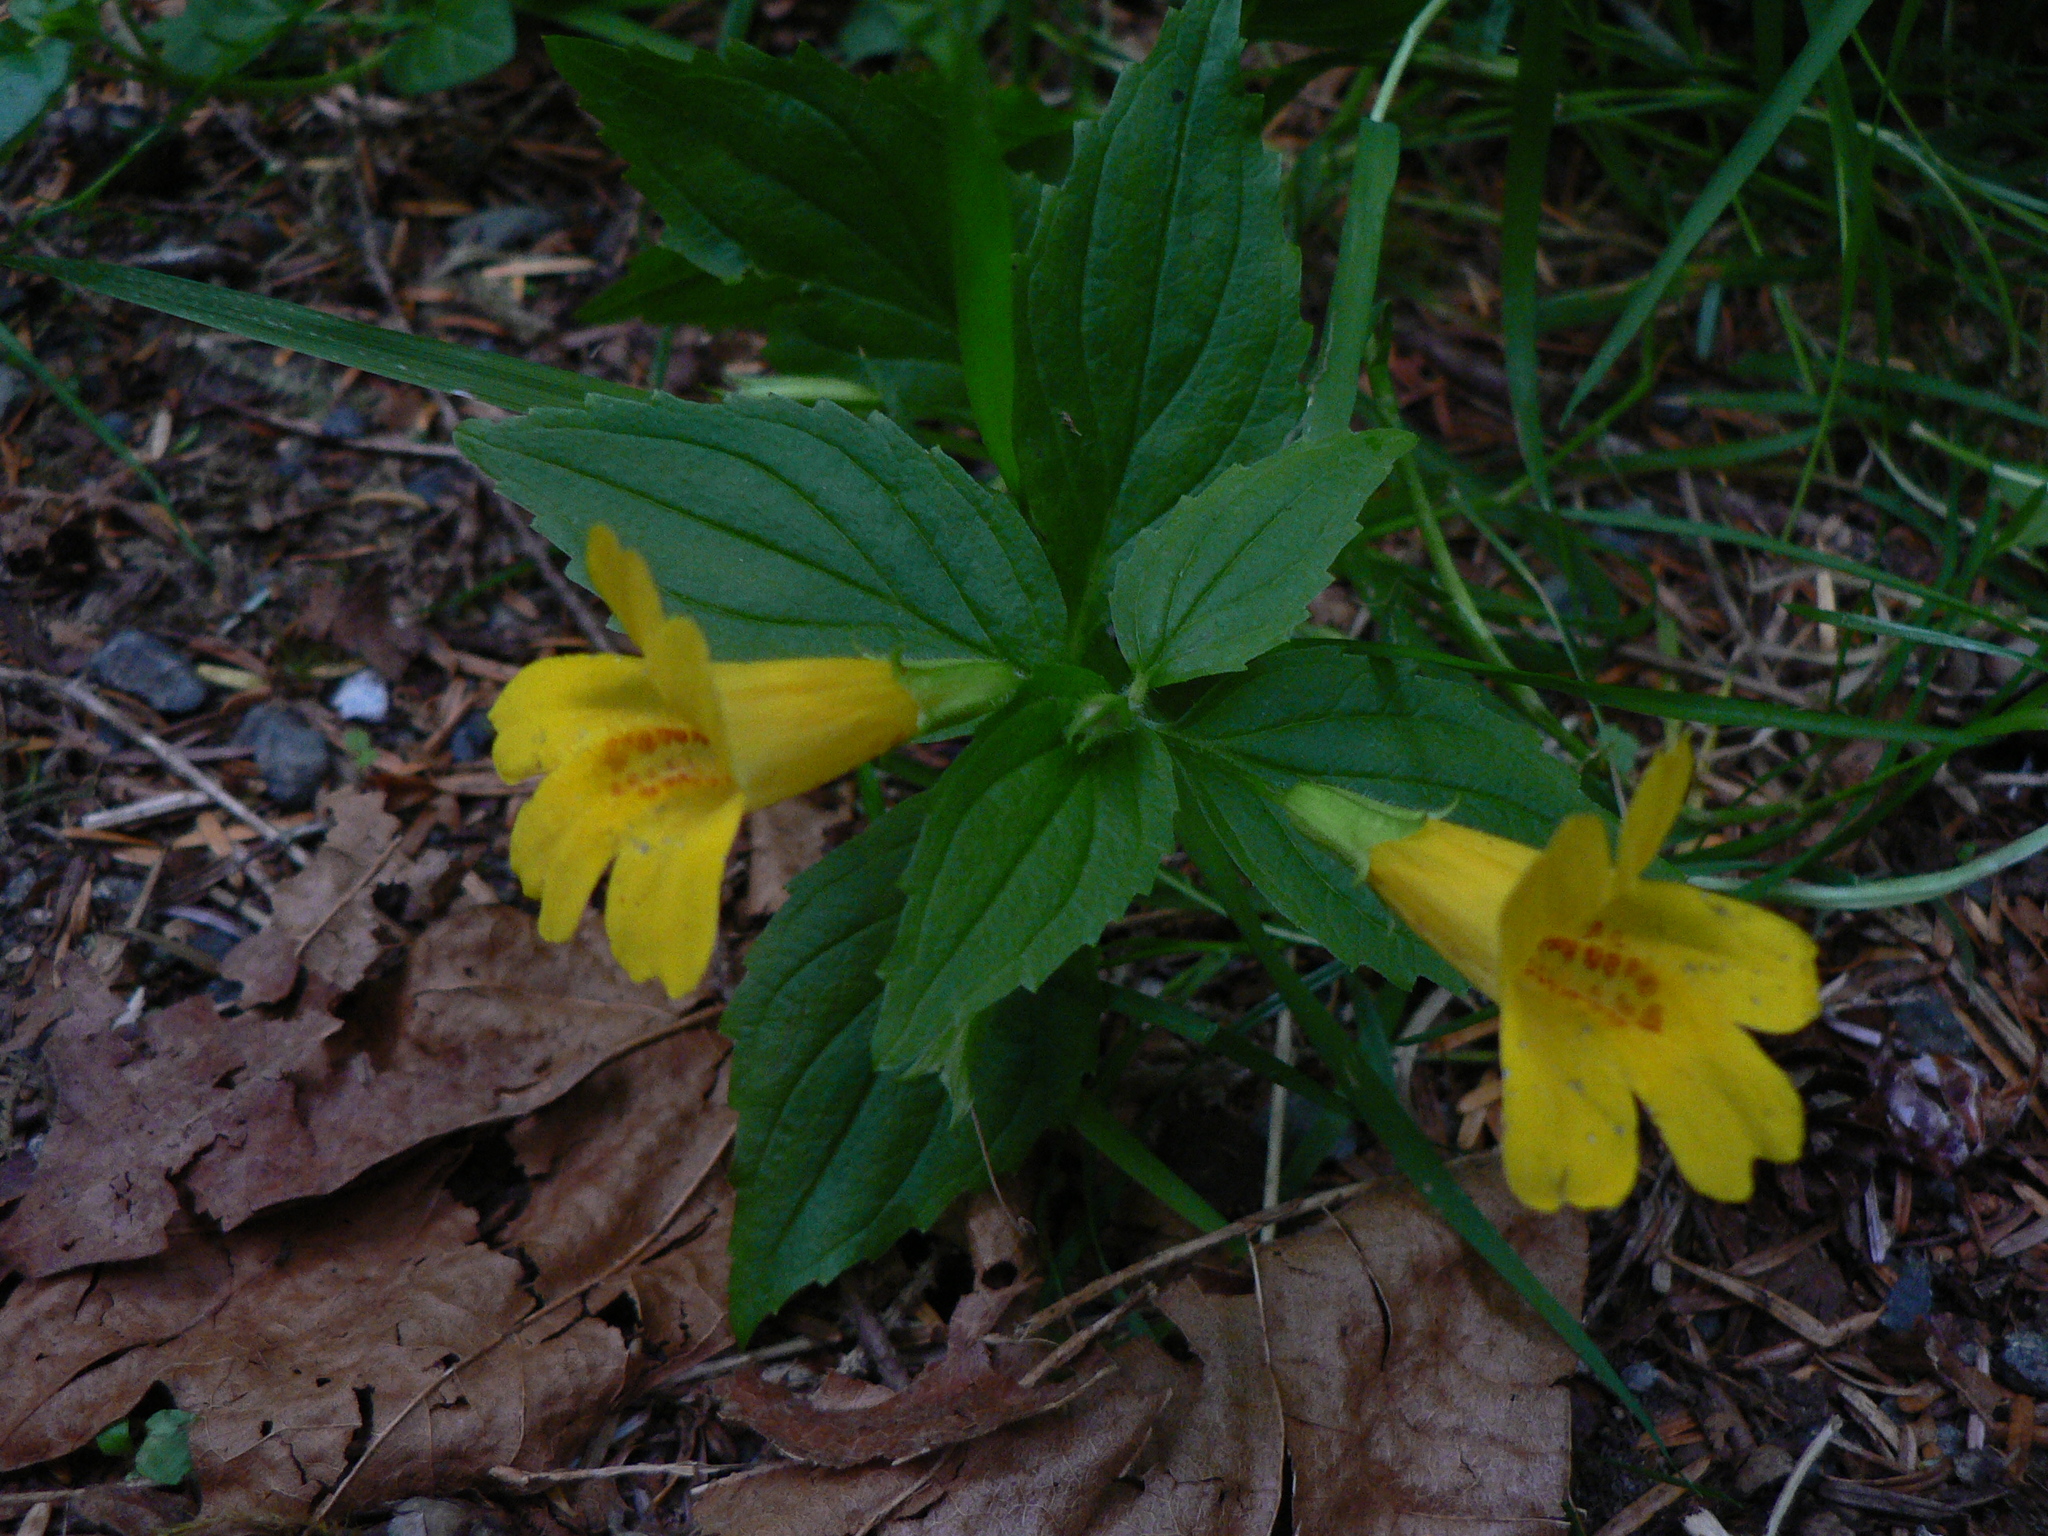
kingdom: Plantae
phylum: Tracheophyta
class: Magnoliopsida
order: Lamiales
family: Phrymaceae
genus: Erythranthe
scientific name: Erythranthe dentata
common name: Coastal monkeyflower
